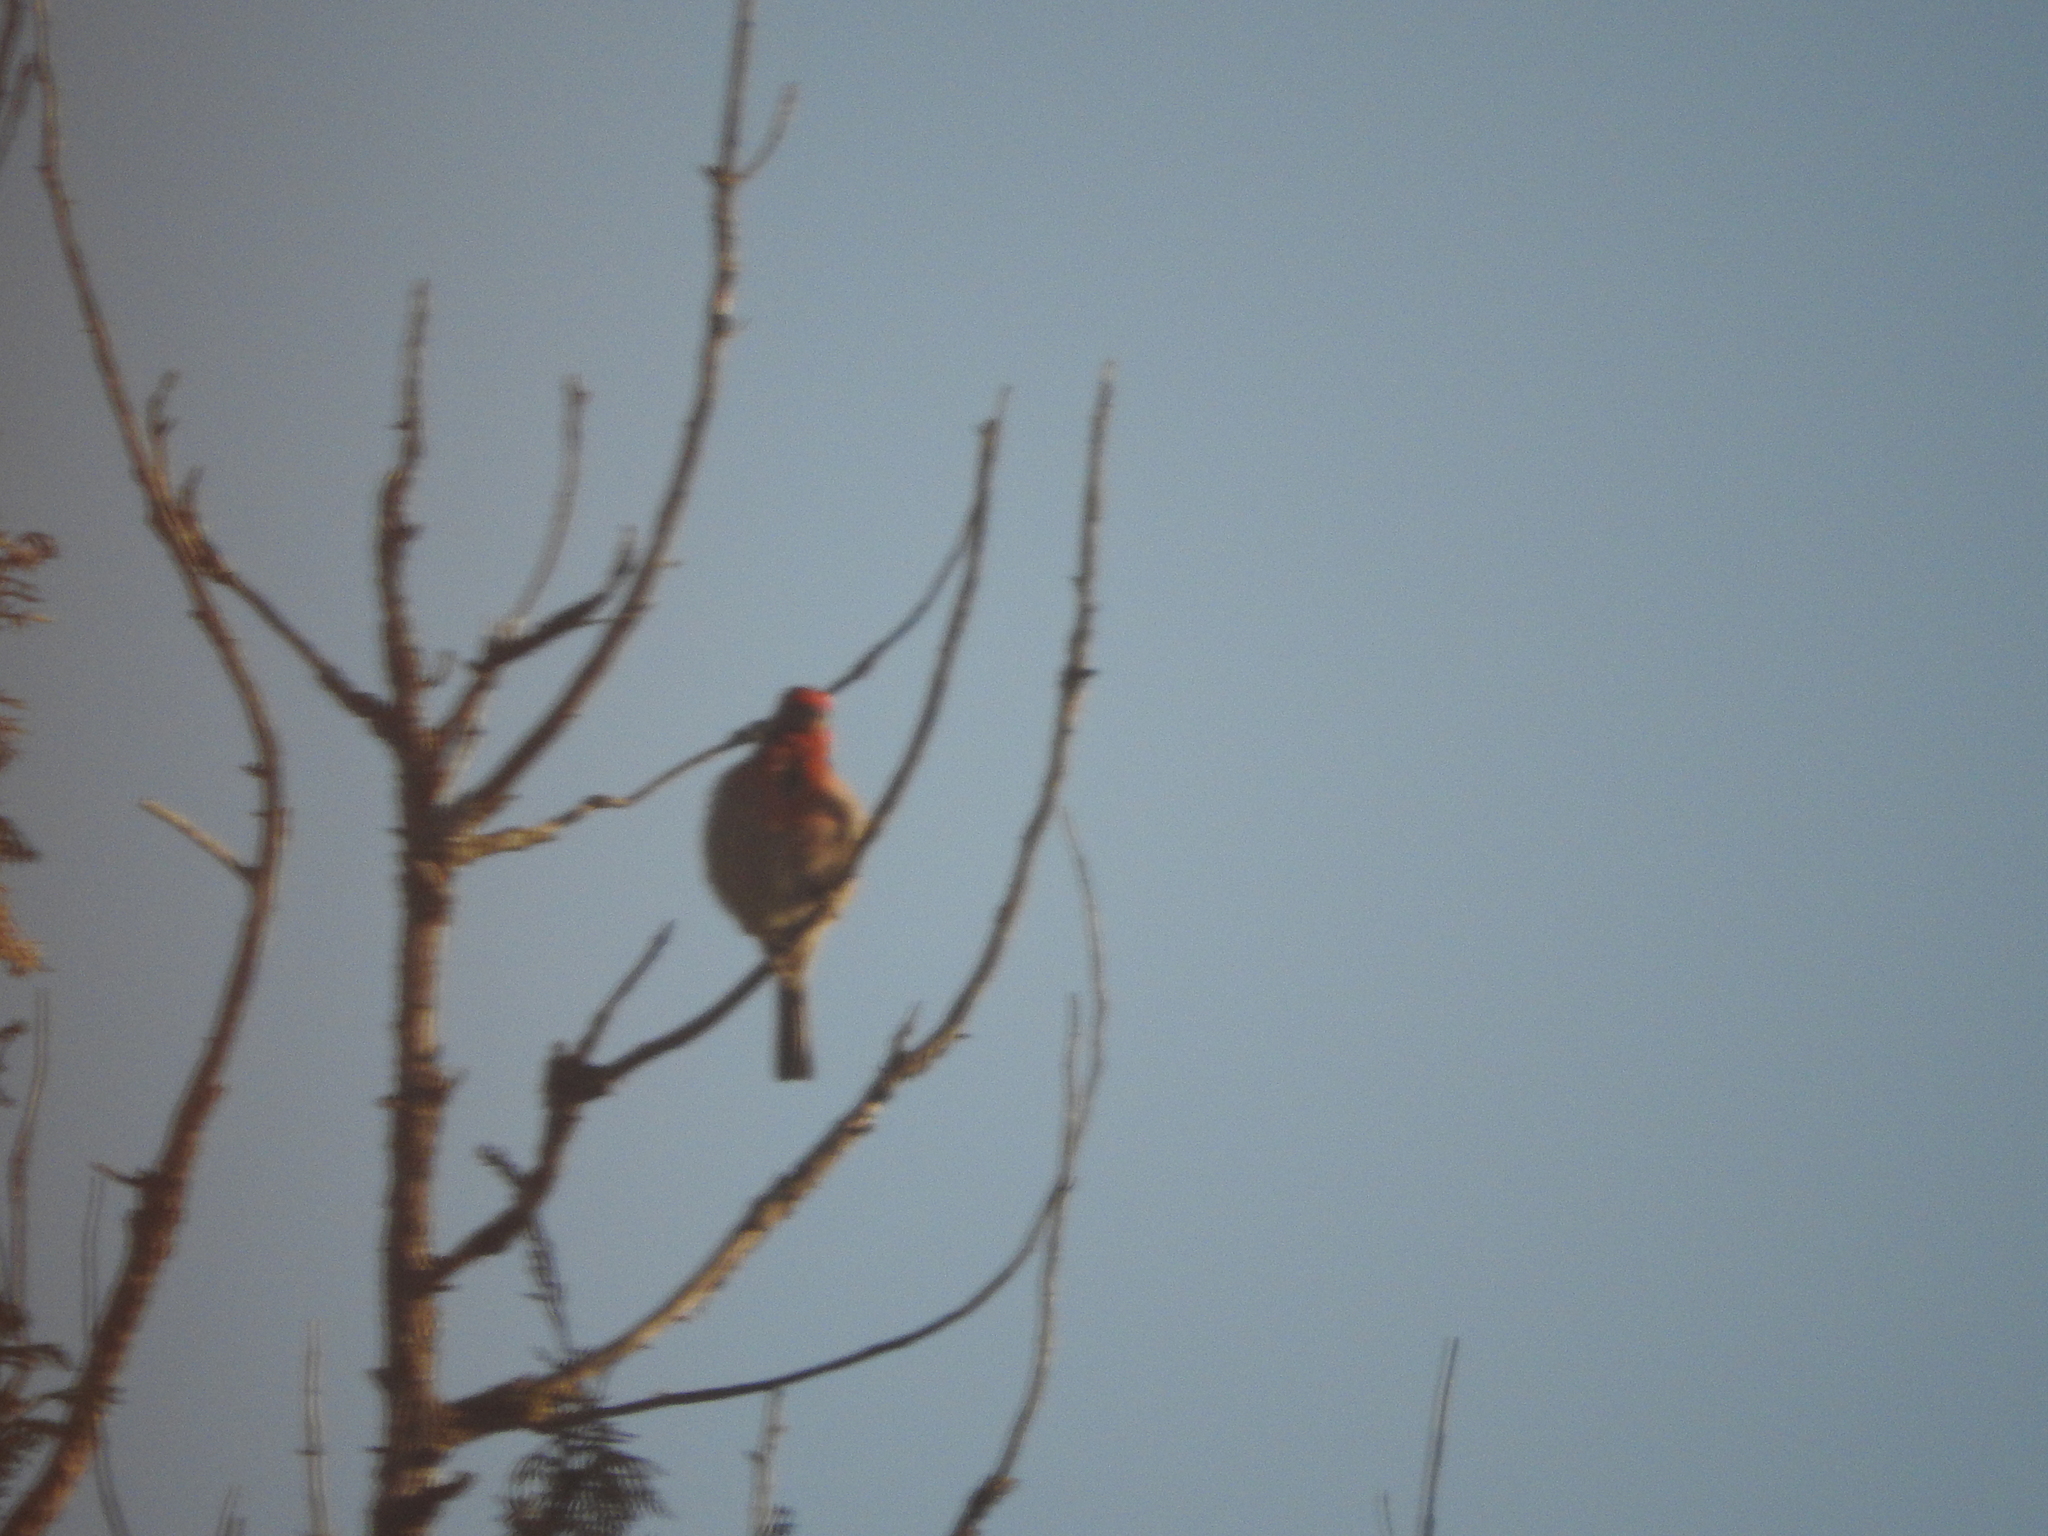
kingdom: Animalia
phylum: Chordata
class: Aves
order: Passeriformes
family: Fringillidae
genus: Haemorhous
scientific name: Haemorhous mexicanus
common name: House finch
